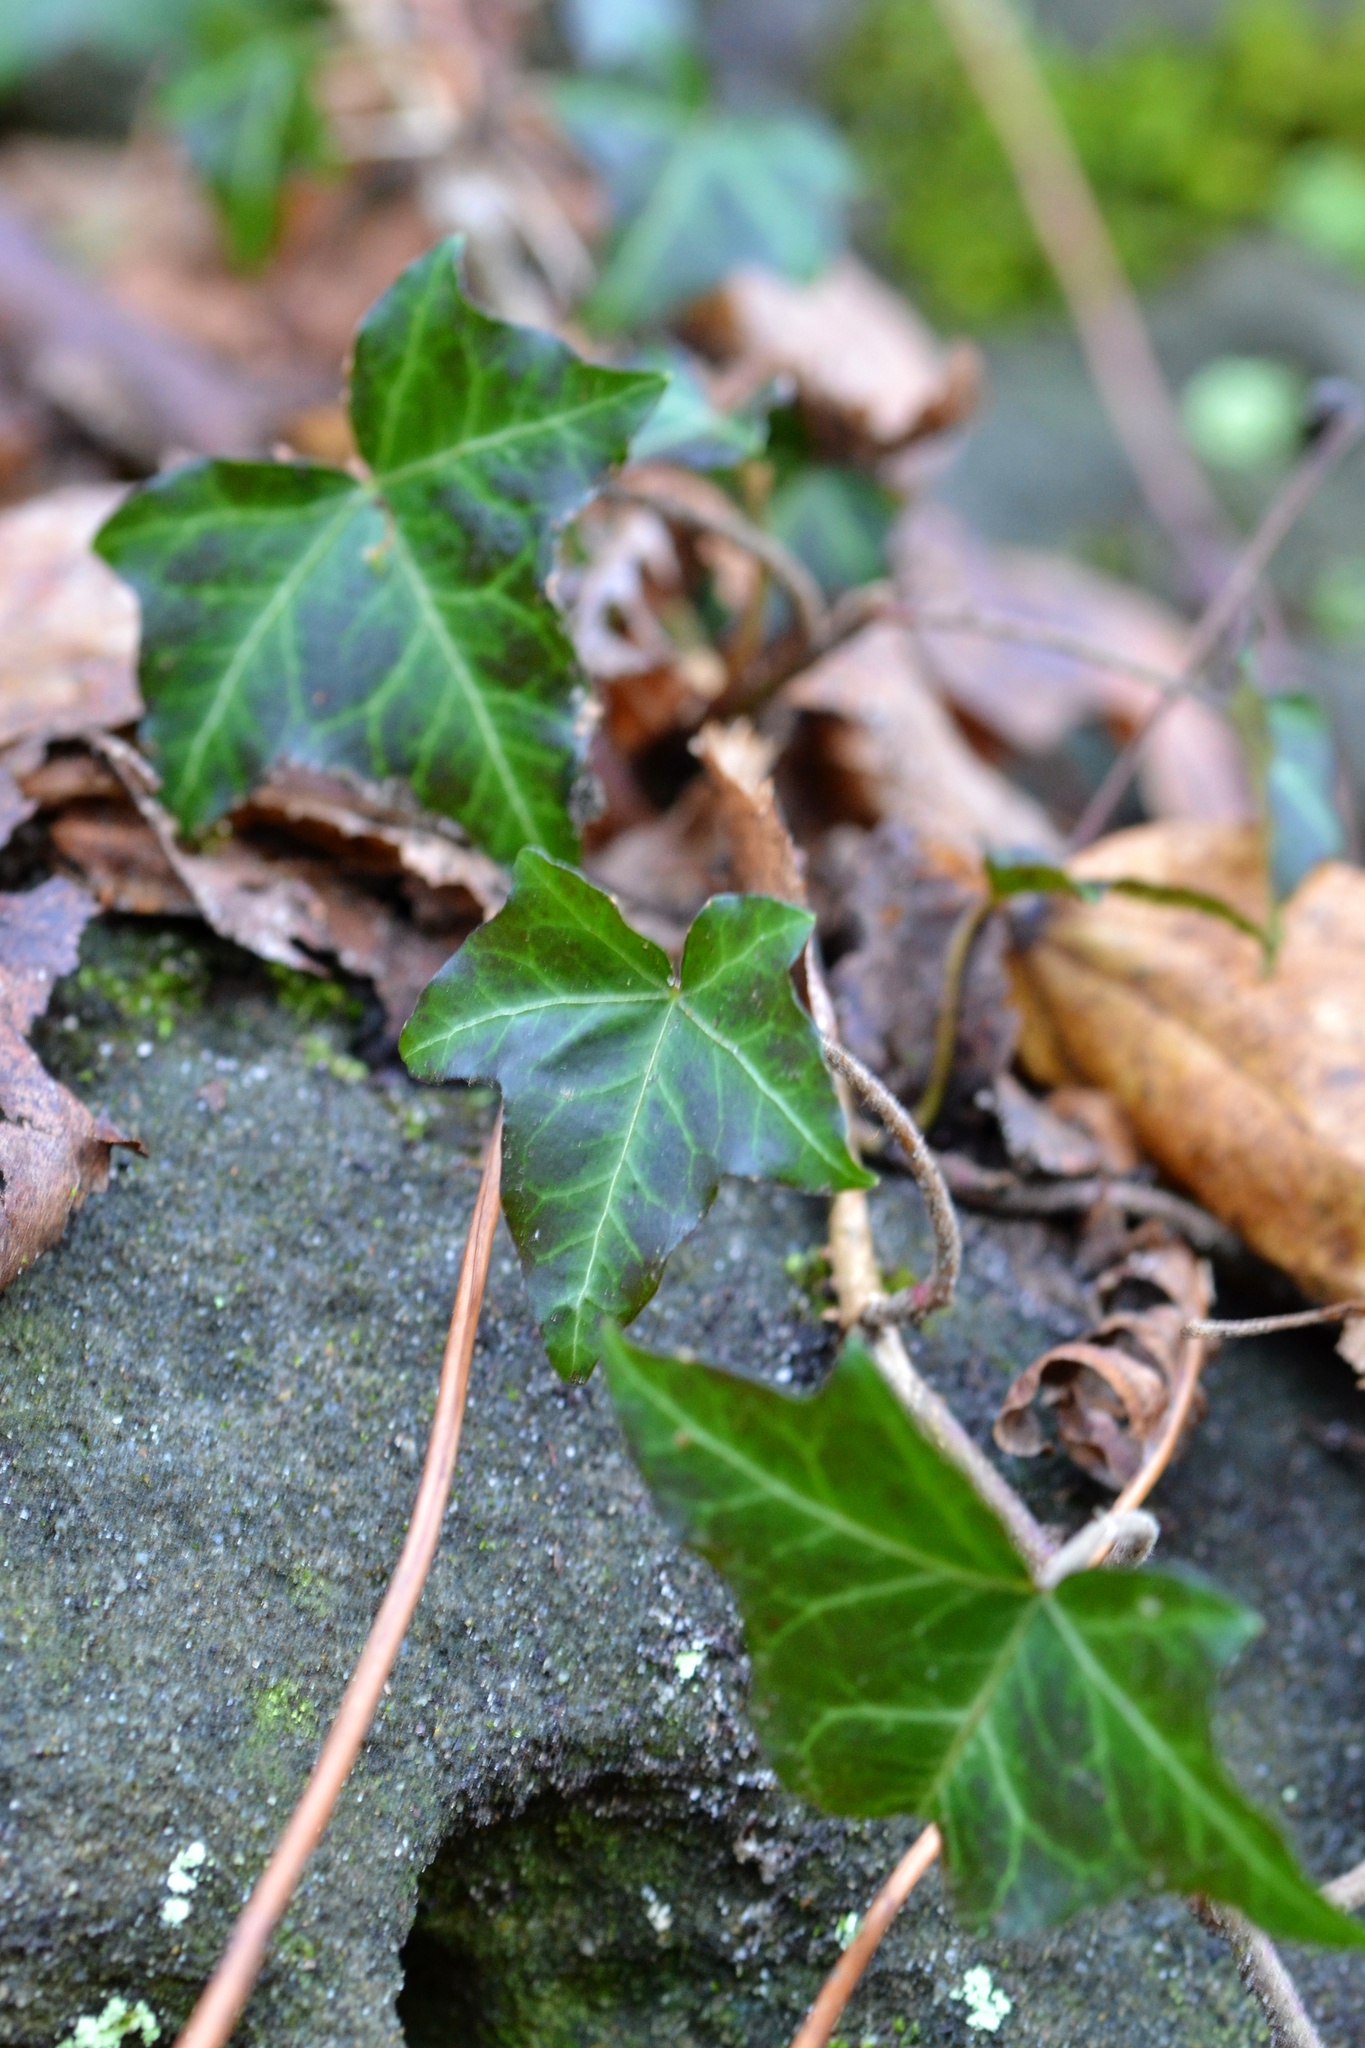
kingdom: Plantae
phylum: Tracheophyta
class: Magnoliopsida
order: Apiales
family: Araliaceae
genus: Hedera
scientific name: Hedera helix
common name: Ivy
